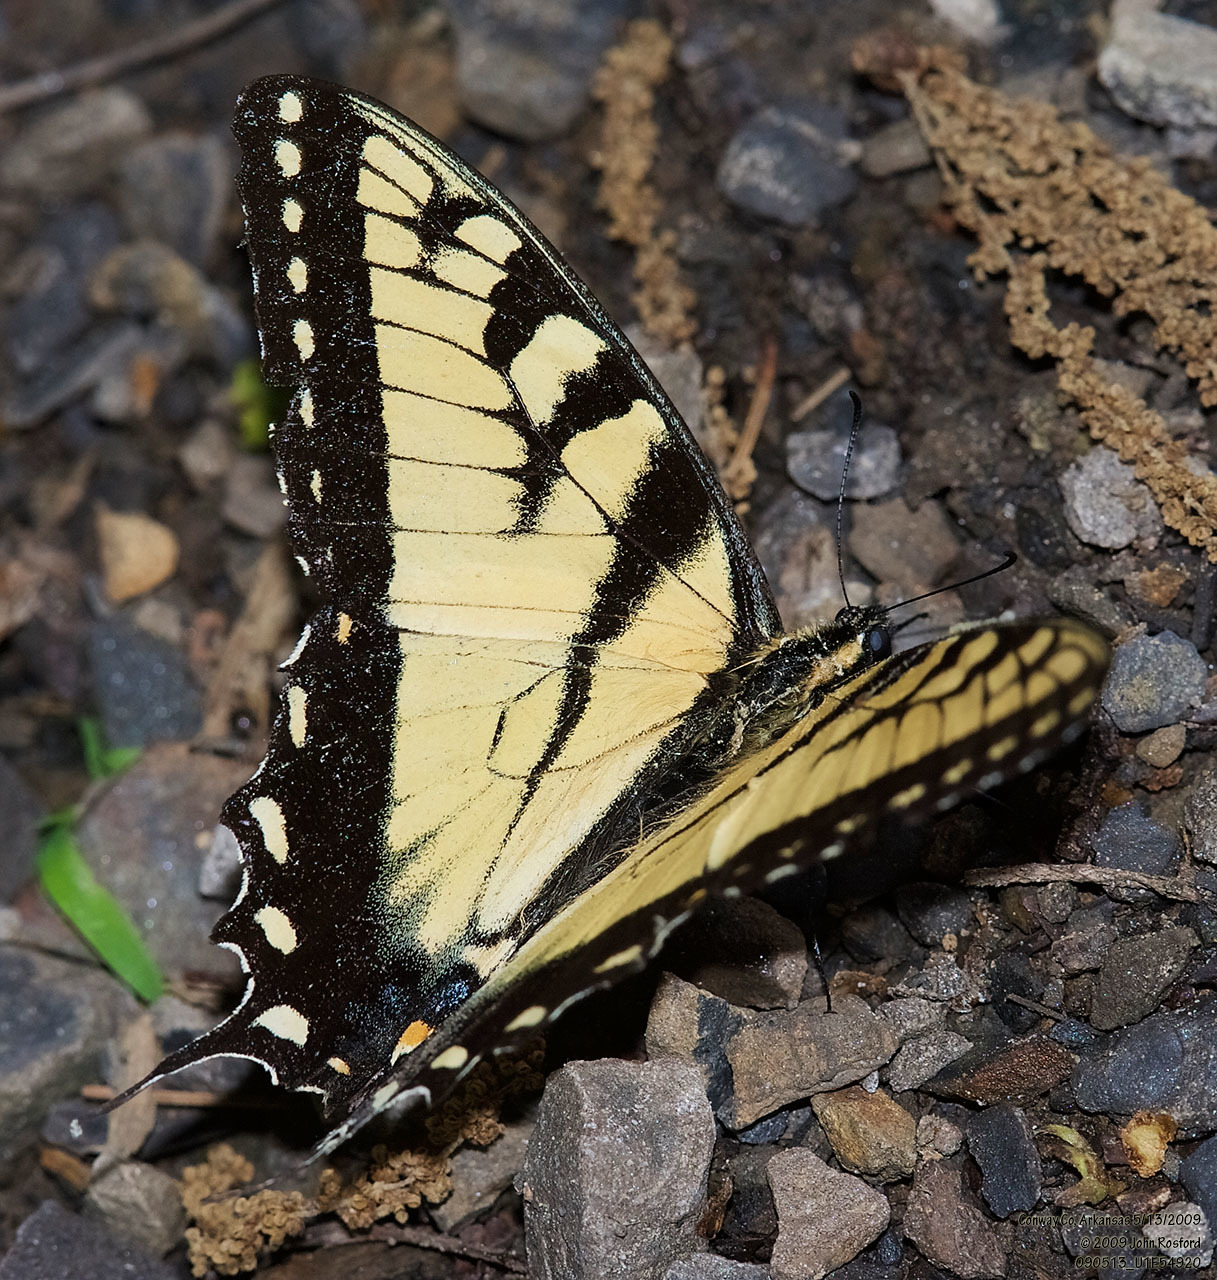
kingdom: Animalia
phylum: Arthropoda
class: Insecta
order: Lepidoptera
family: Papilionidae
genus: Papilio
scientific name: Papilio glaucus
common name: Tiger swallowtail
